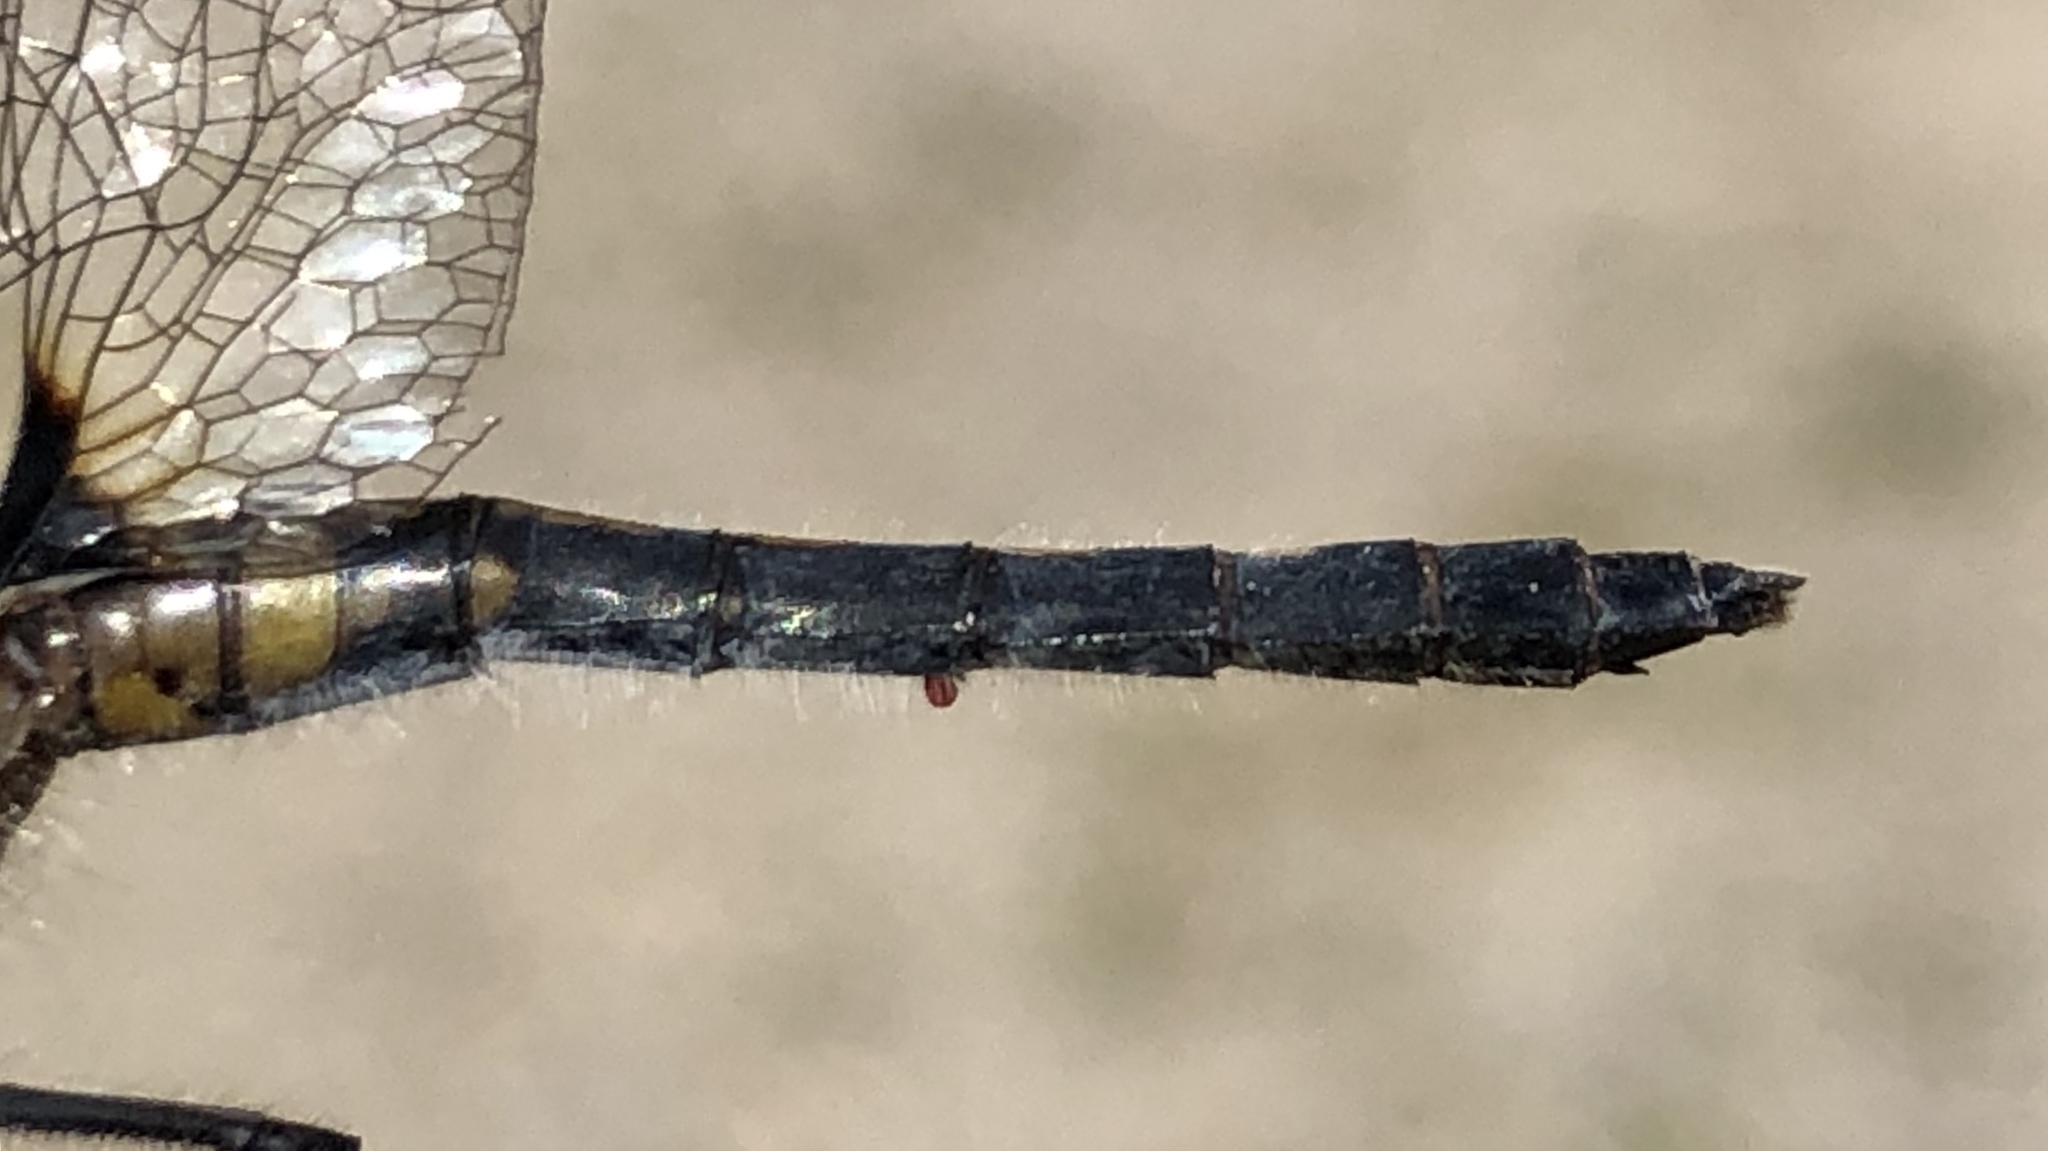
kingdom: Animalia
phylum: Arthropoda
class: Insecta
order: Odonata
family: Libellulidae
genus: Leucorrhinia
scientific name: Leucorrhinia frigida
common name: Frosted whiteface
